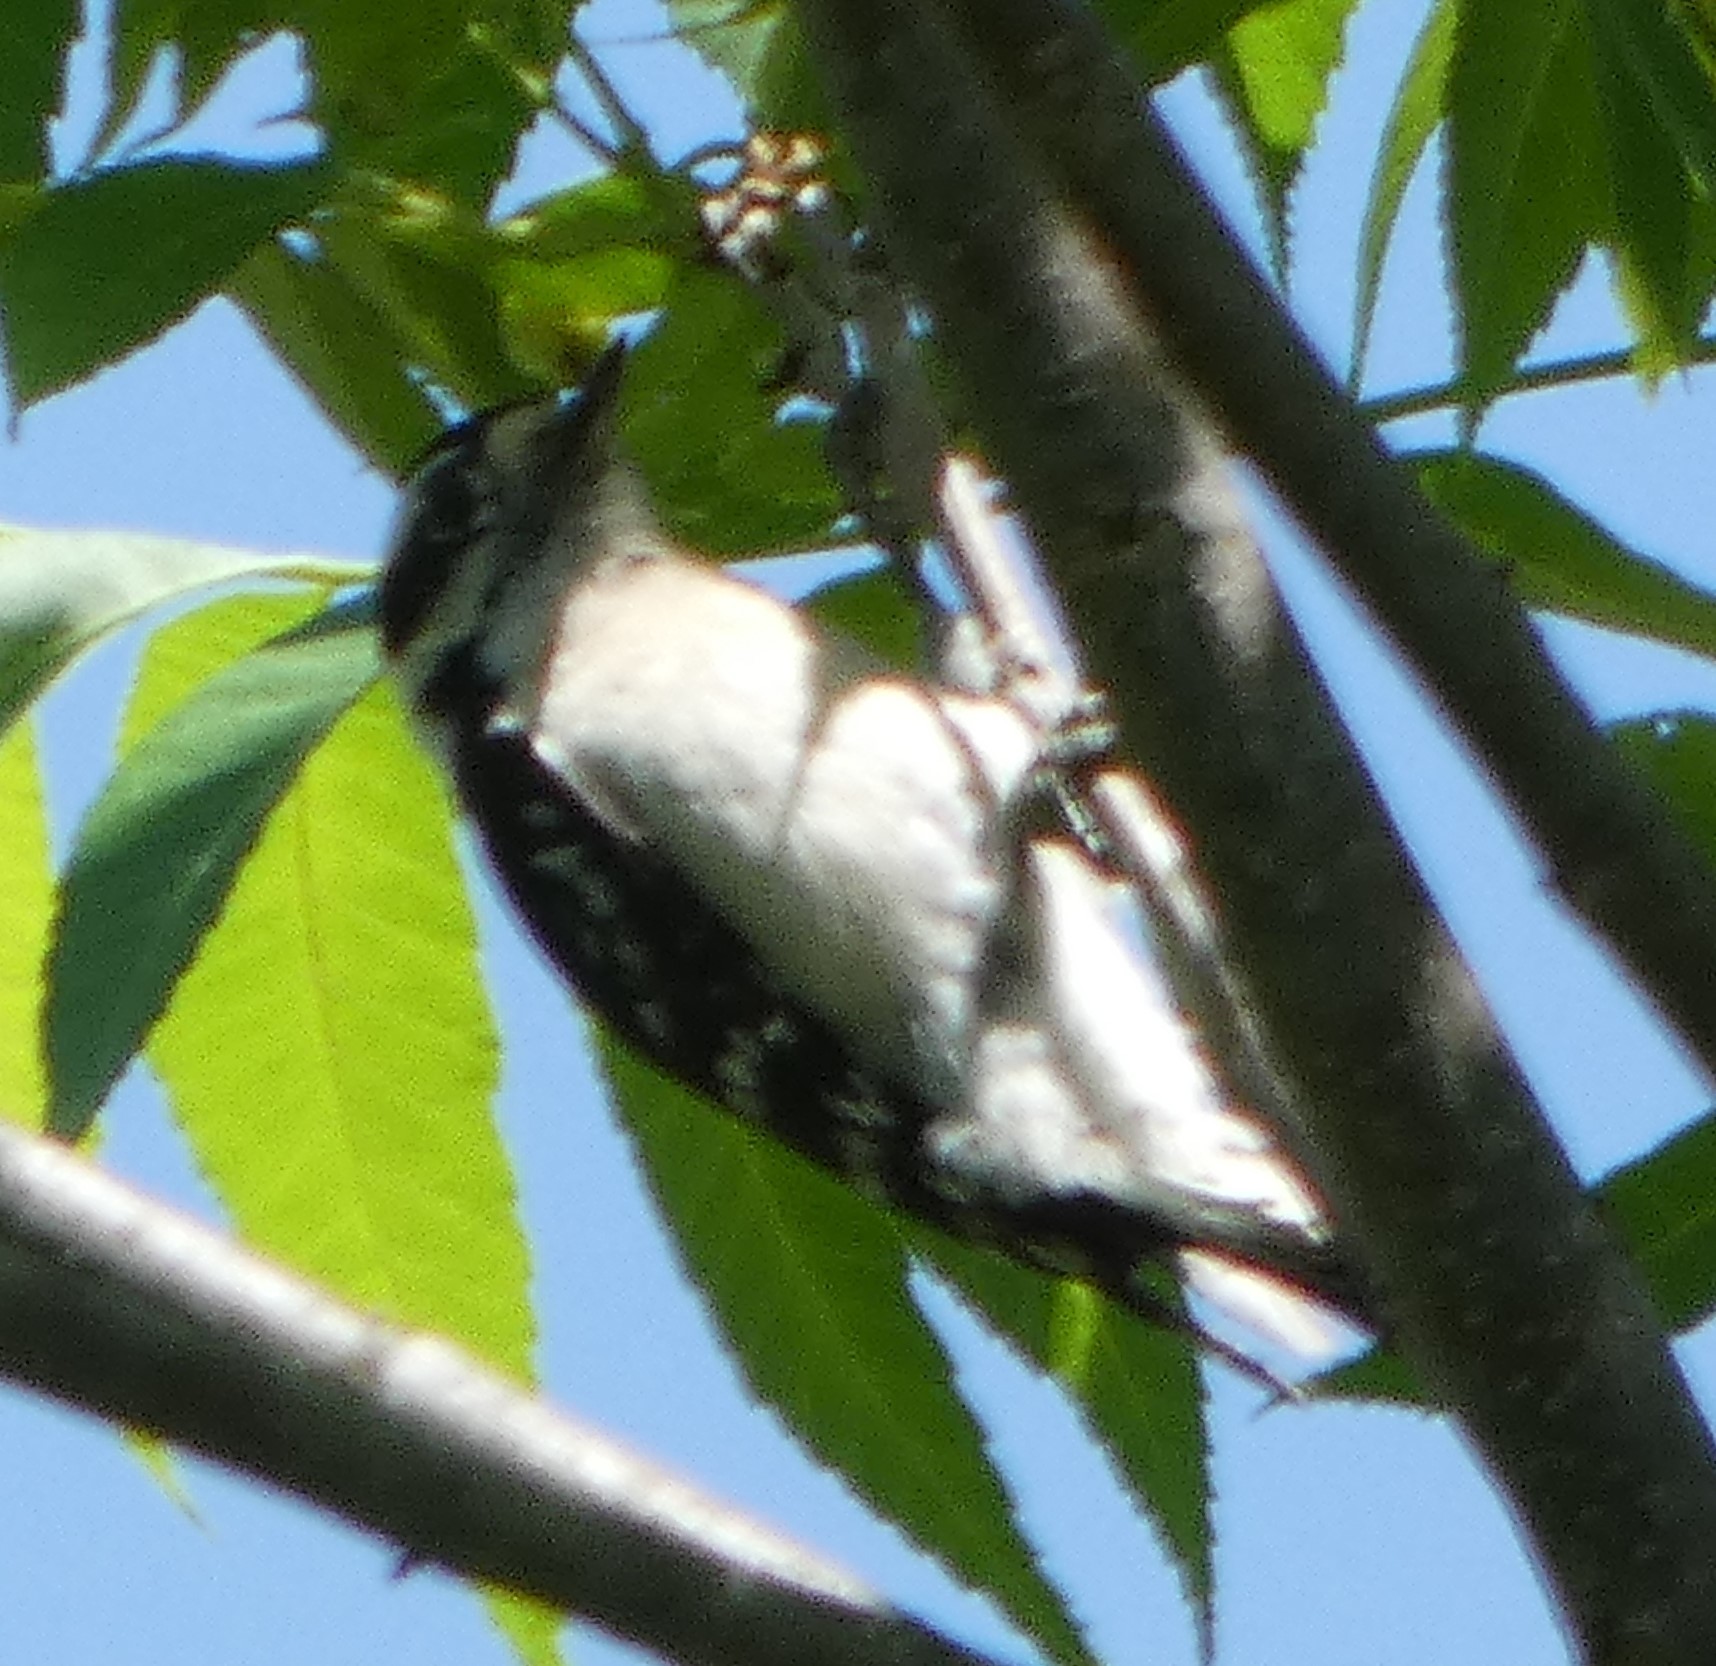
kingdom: Animalia
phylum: Chordata
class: Aves
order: Piciformes
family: Picidae
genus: Dryobates
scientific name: Dryobates pubescens
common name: Downy woodpecker
